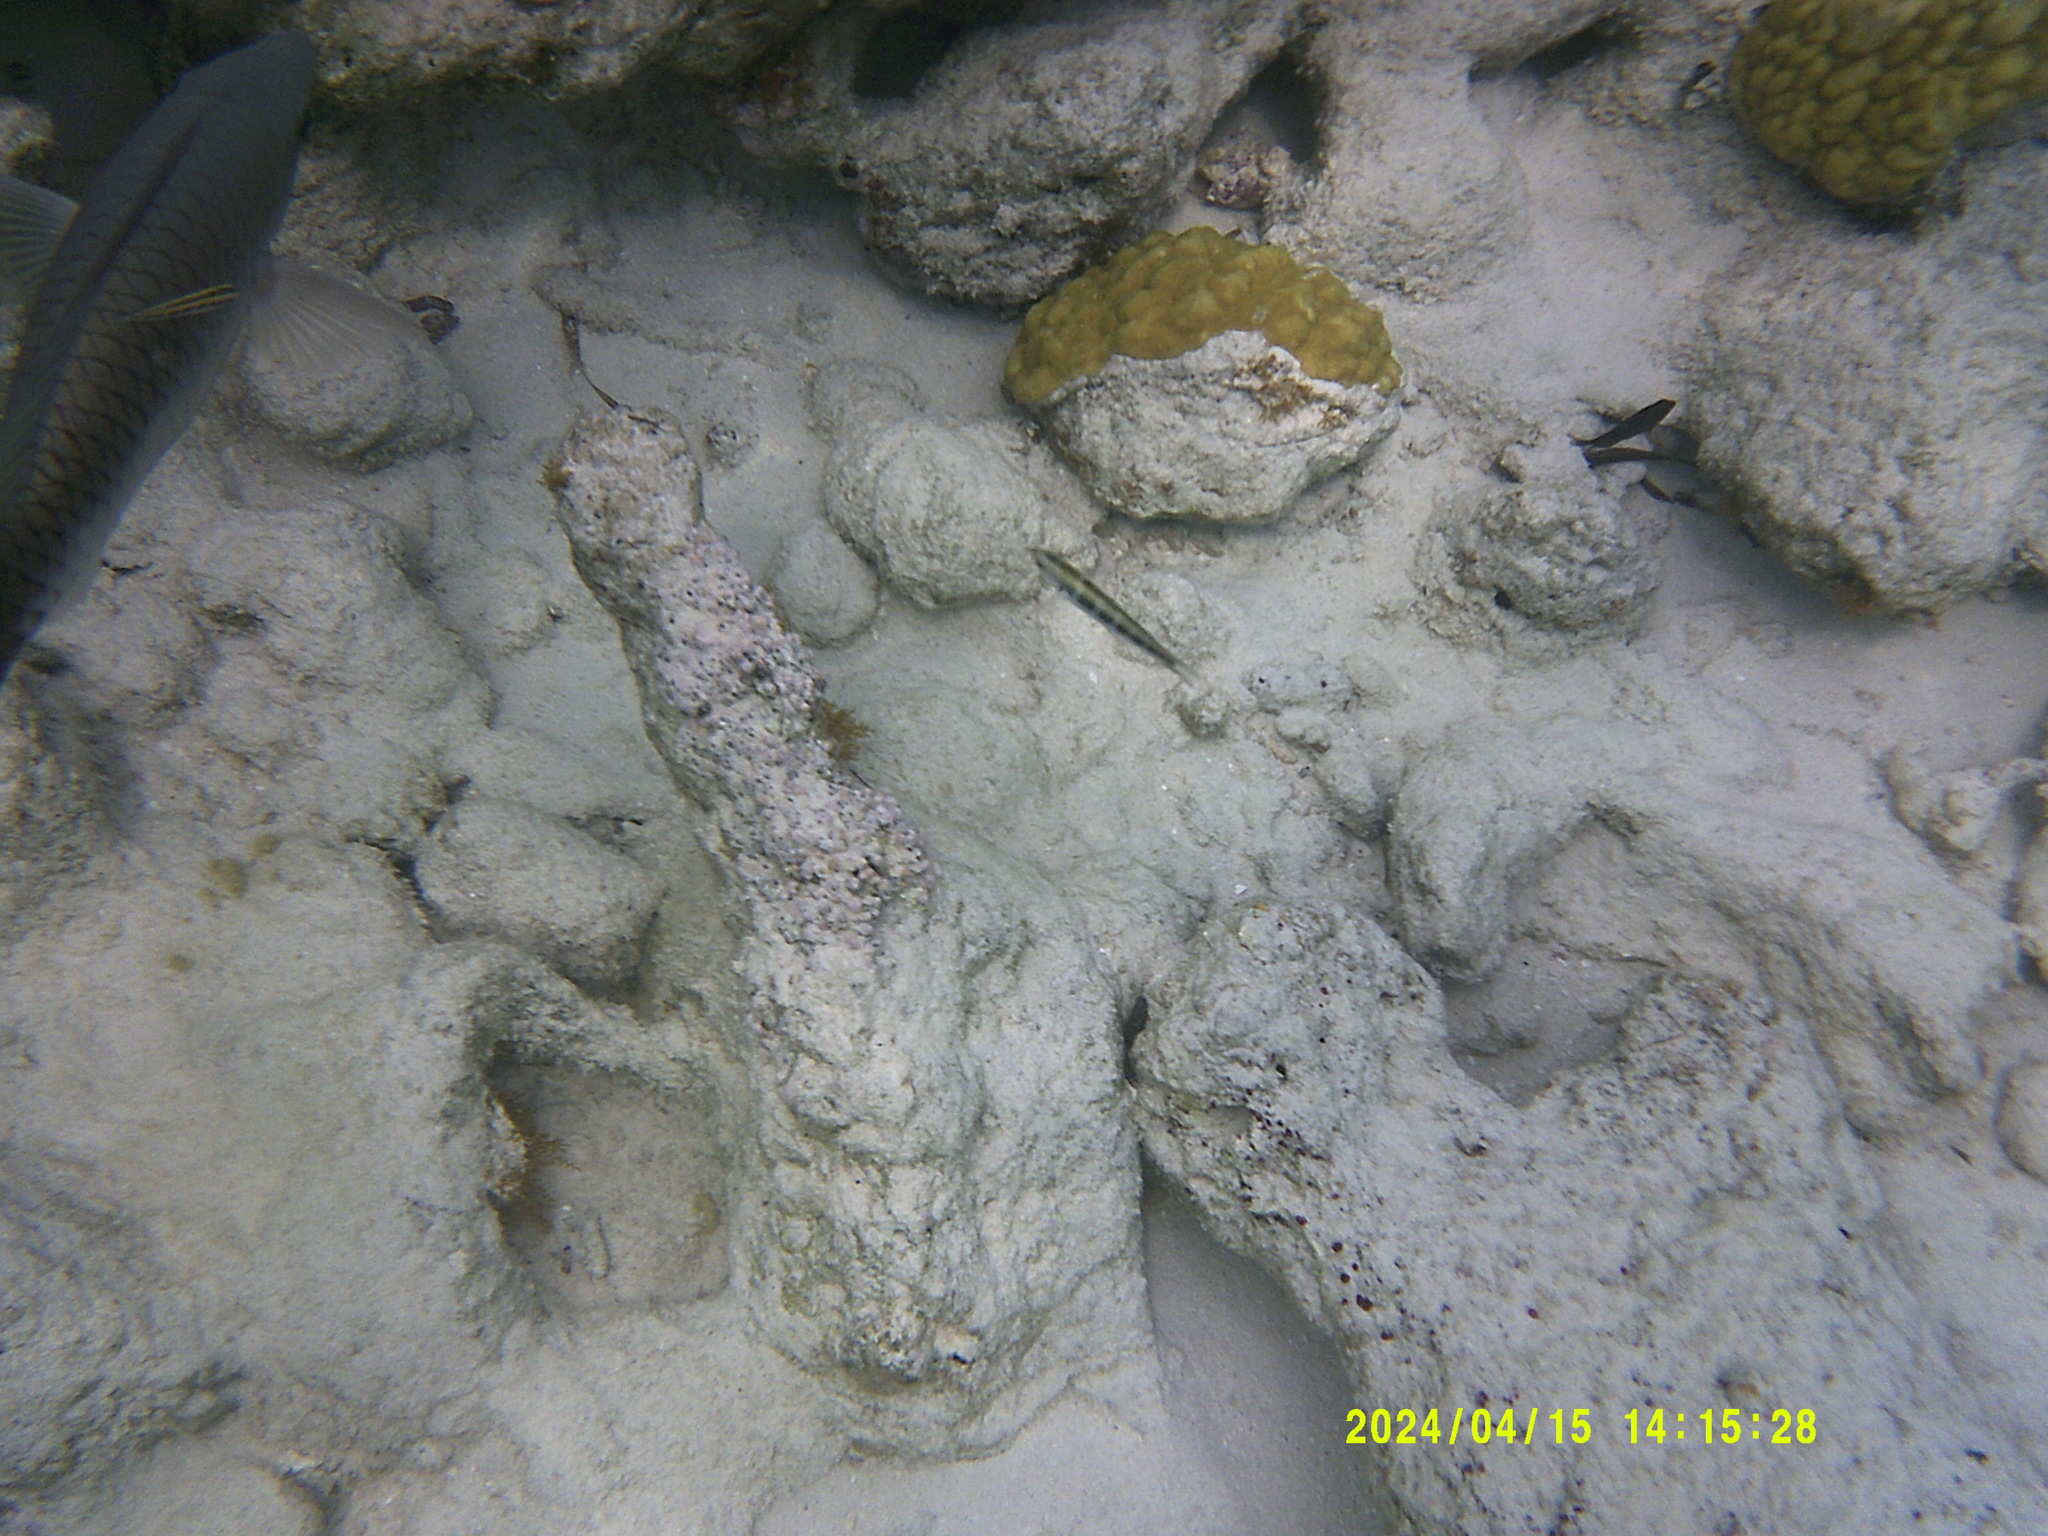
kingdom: Animalia
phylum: Chordata
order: Perciformes
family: Labridae
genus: Thalassoma
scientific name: Thalassoma bifasciatum
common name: Bluehead wrasse
